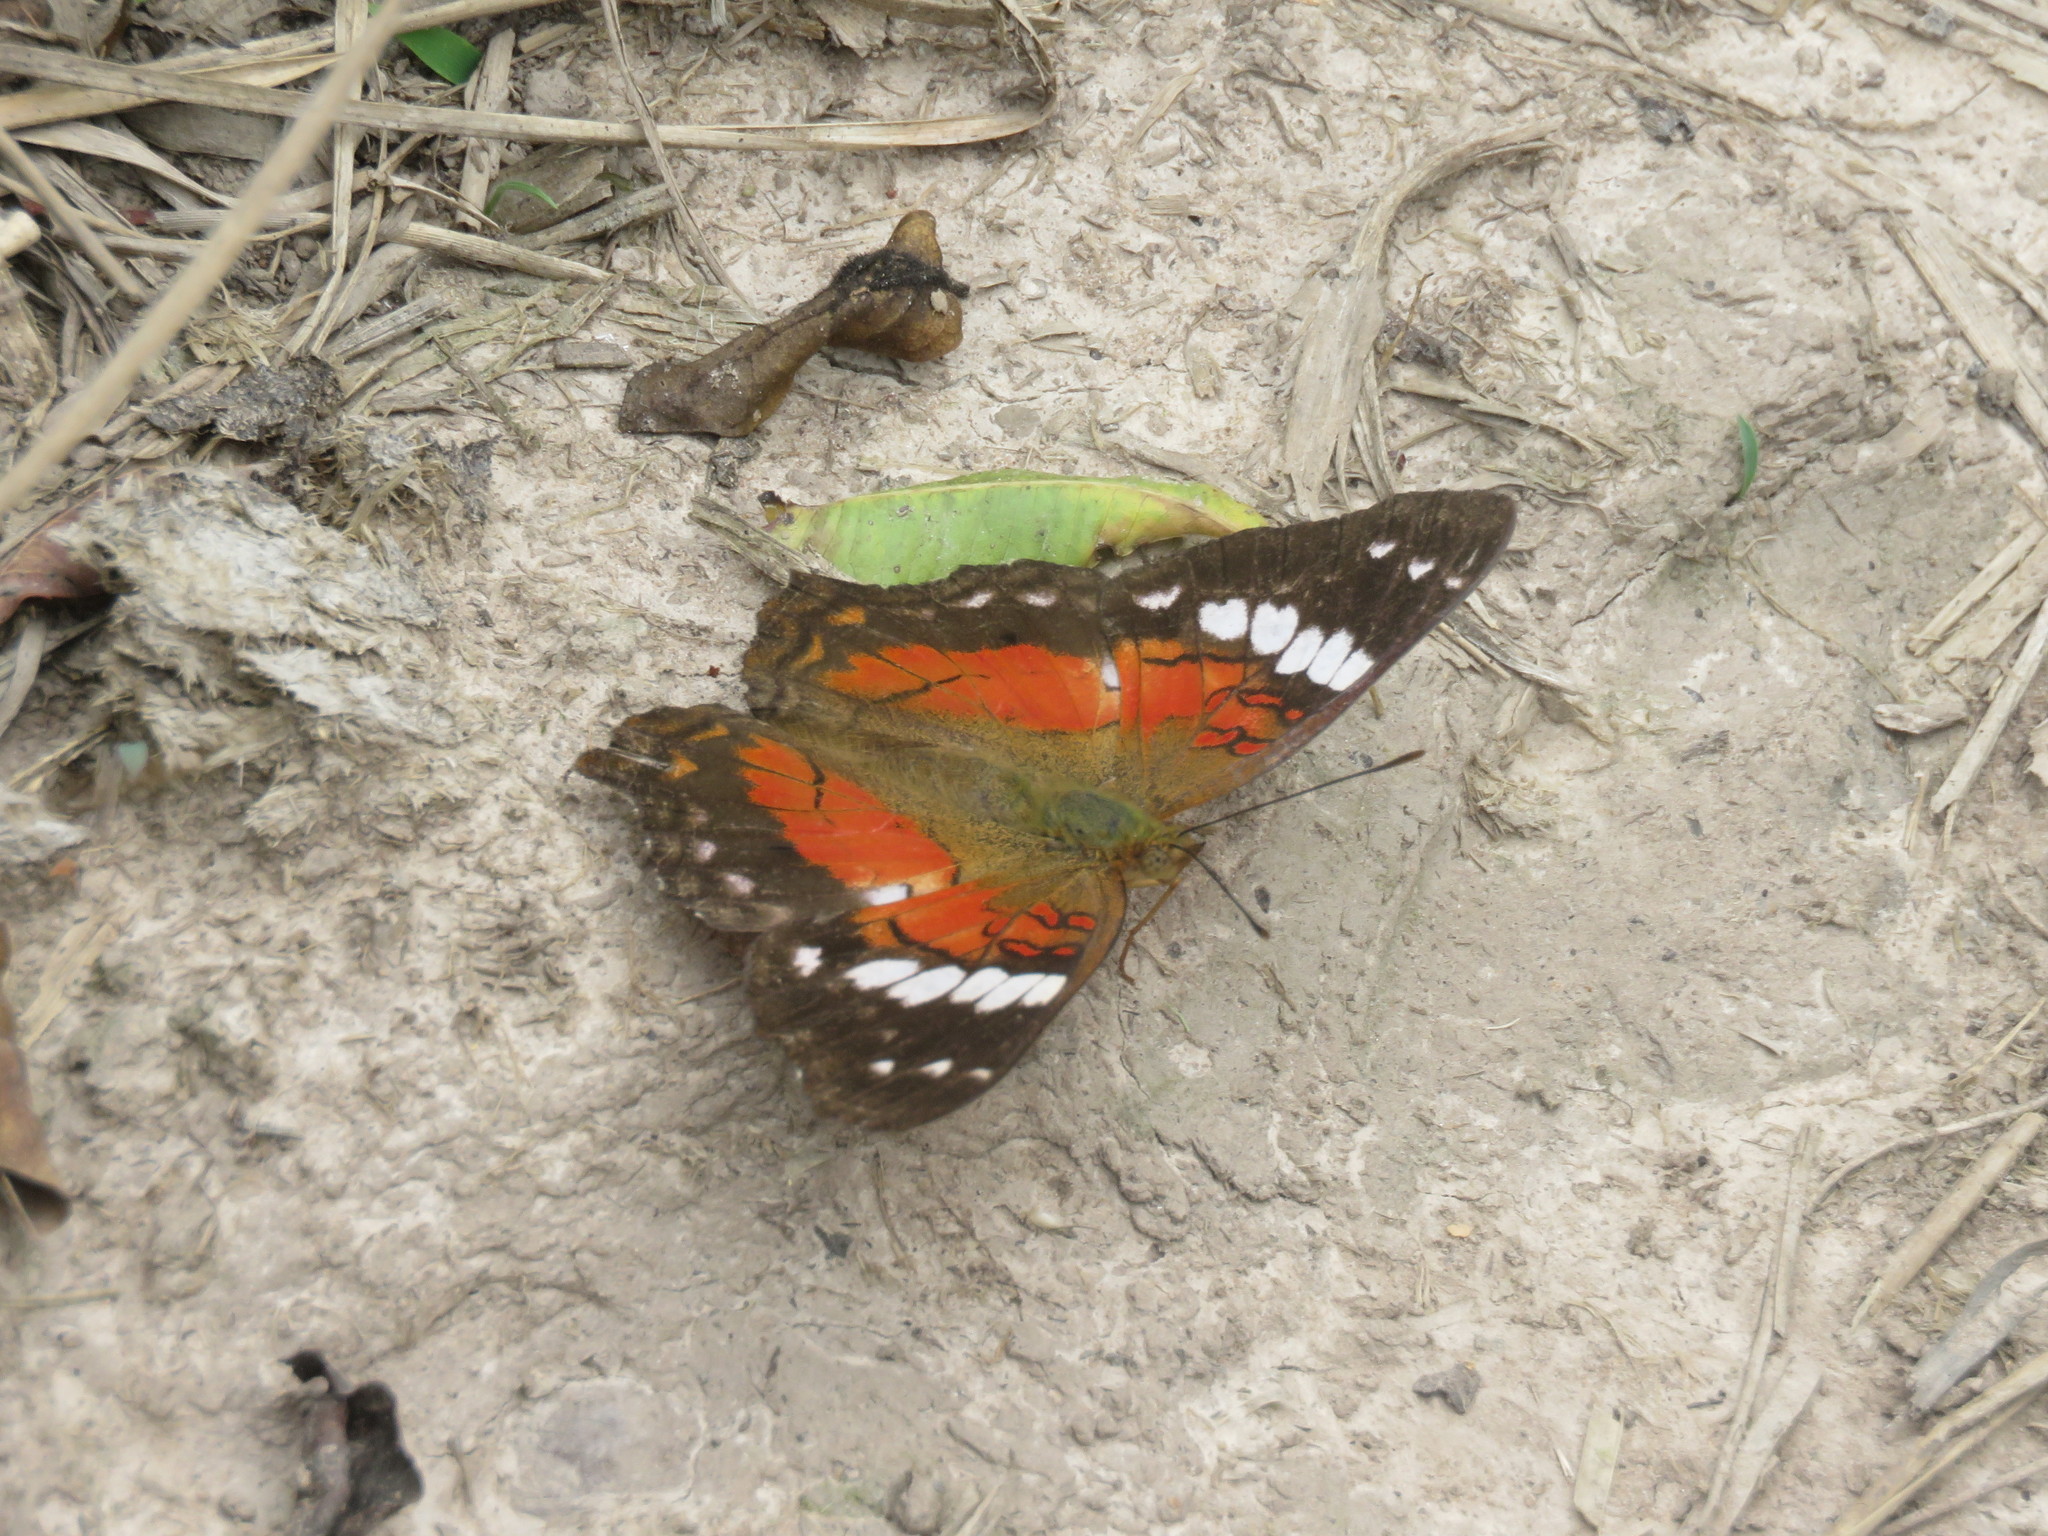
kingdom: Animalia
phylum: Arthropoda
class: Insecta
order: Lepidoptera
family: Nymphalidae
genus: Anartia
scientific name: Anartia amathea
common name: Red peacock
